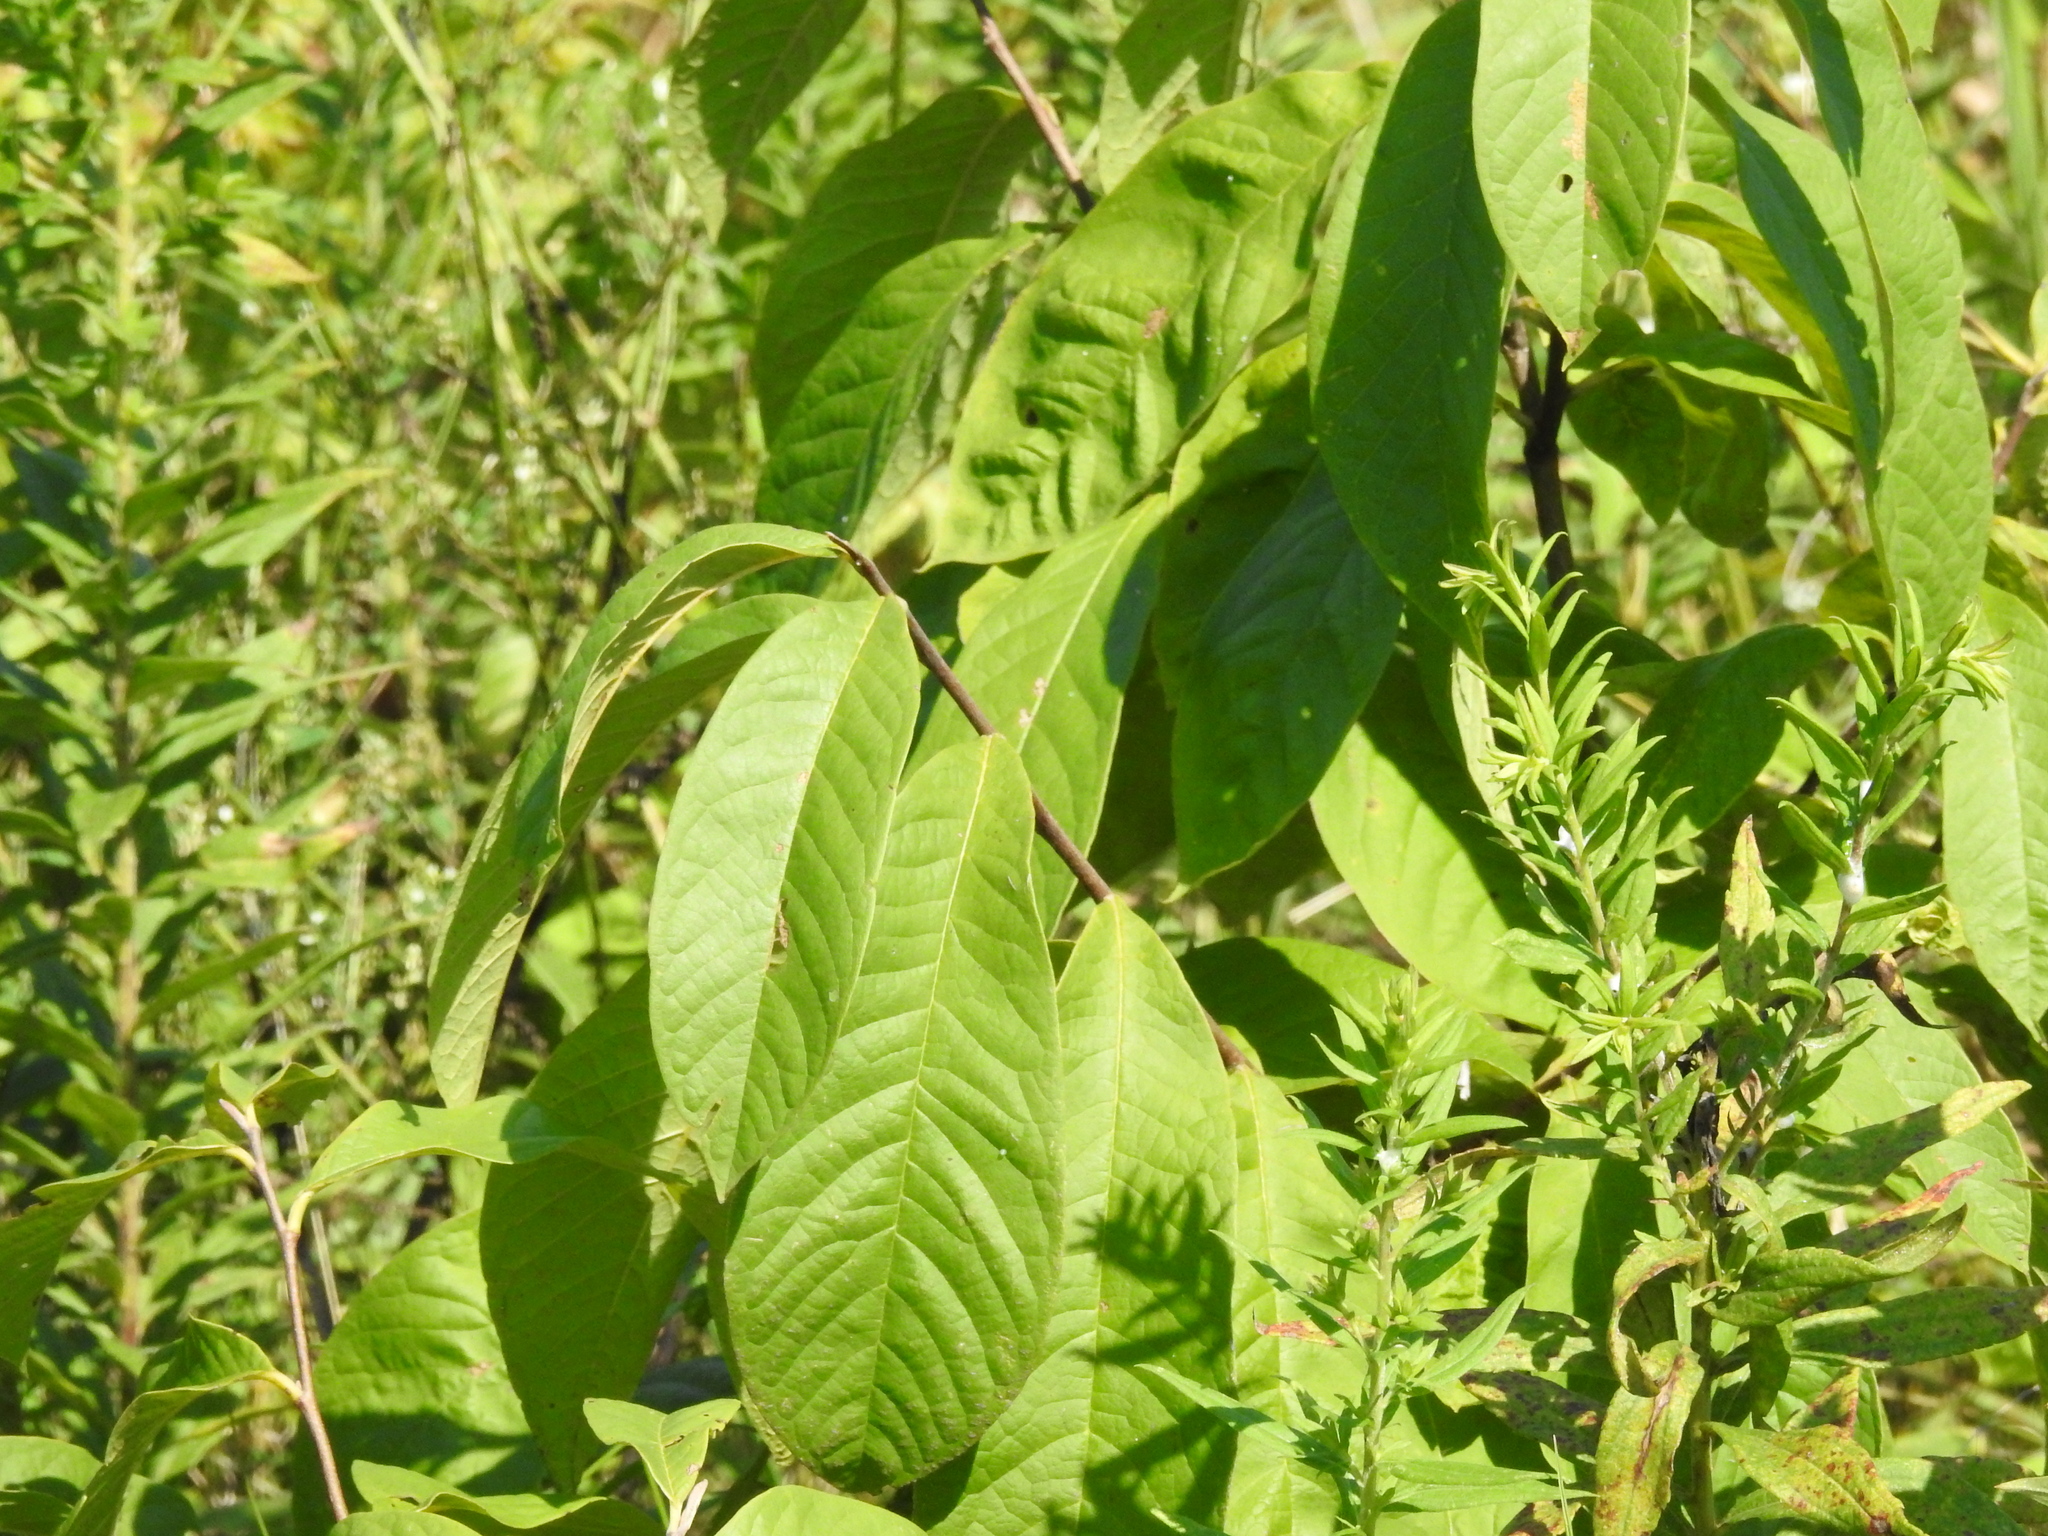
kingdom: Plantae
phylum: Tracheophyta
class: Magnoliopsida
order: Magnoliales
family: Annonaceae
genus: Asimina
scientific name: Asimina triloba
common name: Dog-banana
